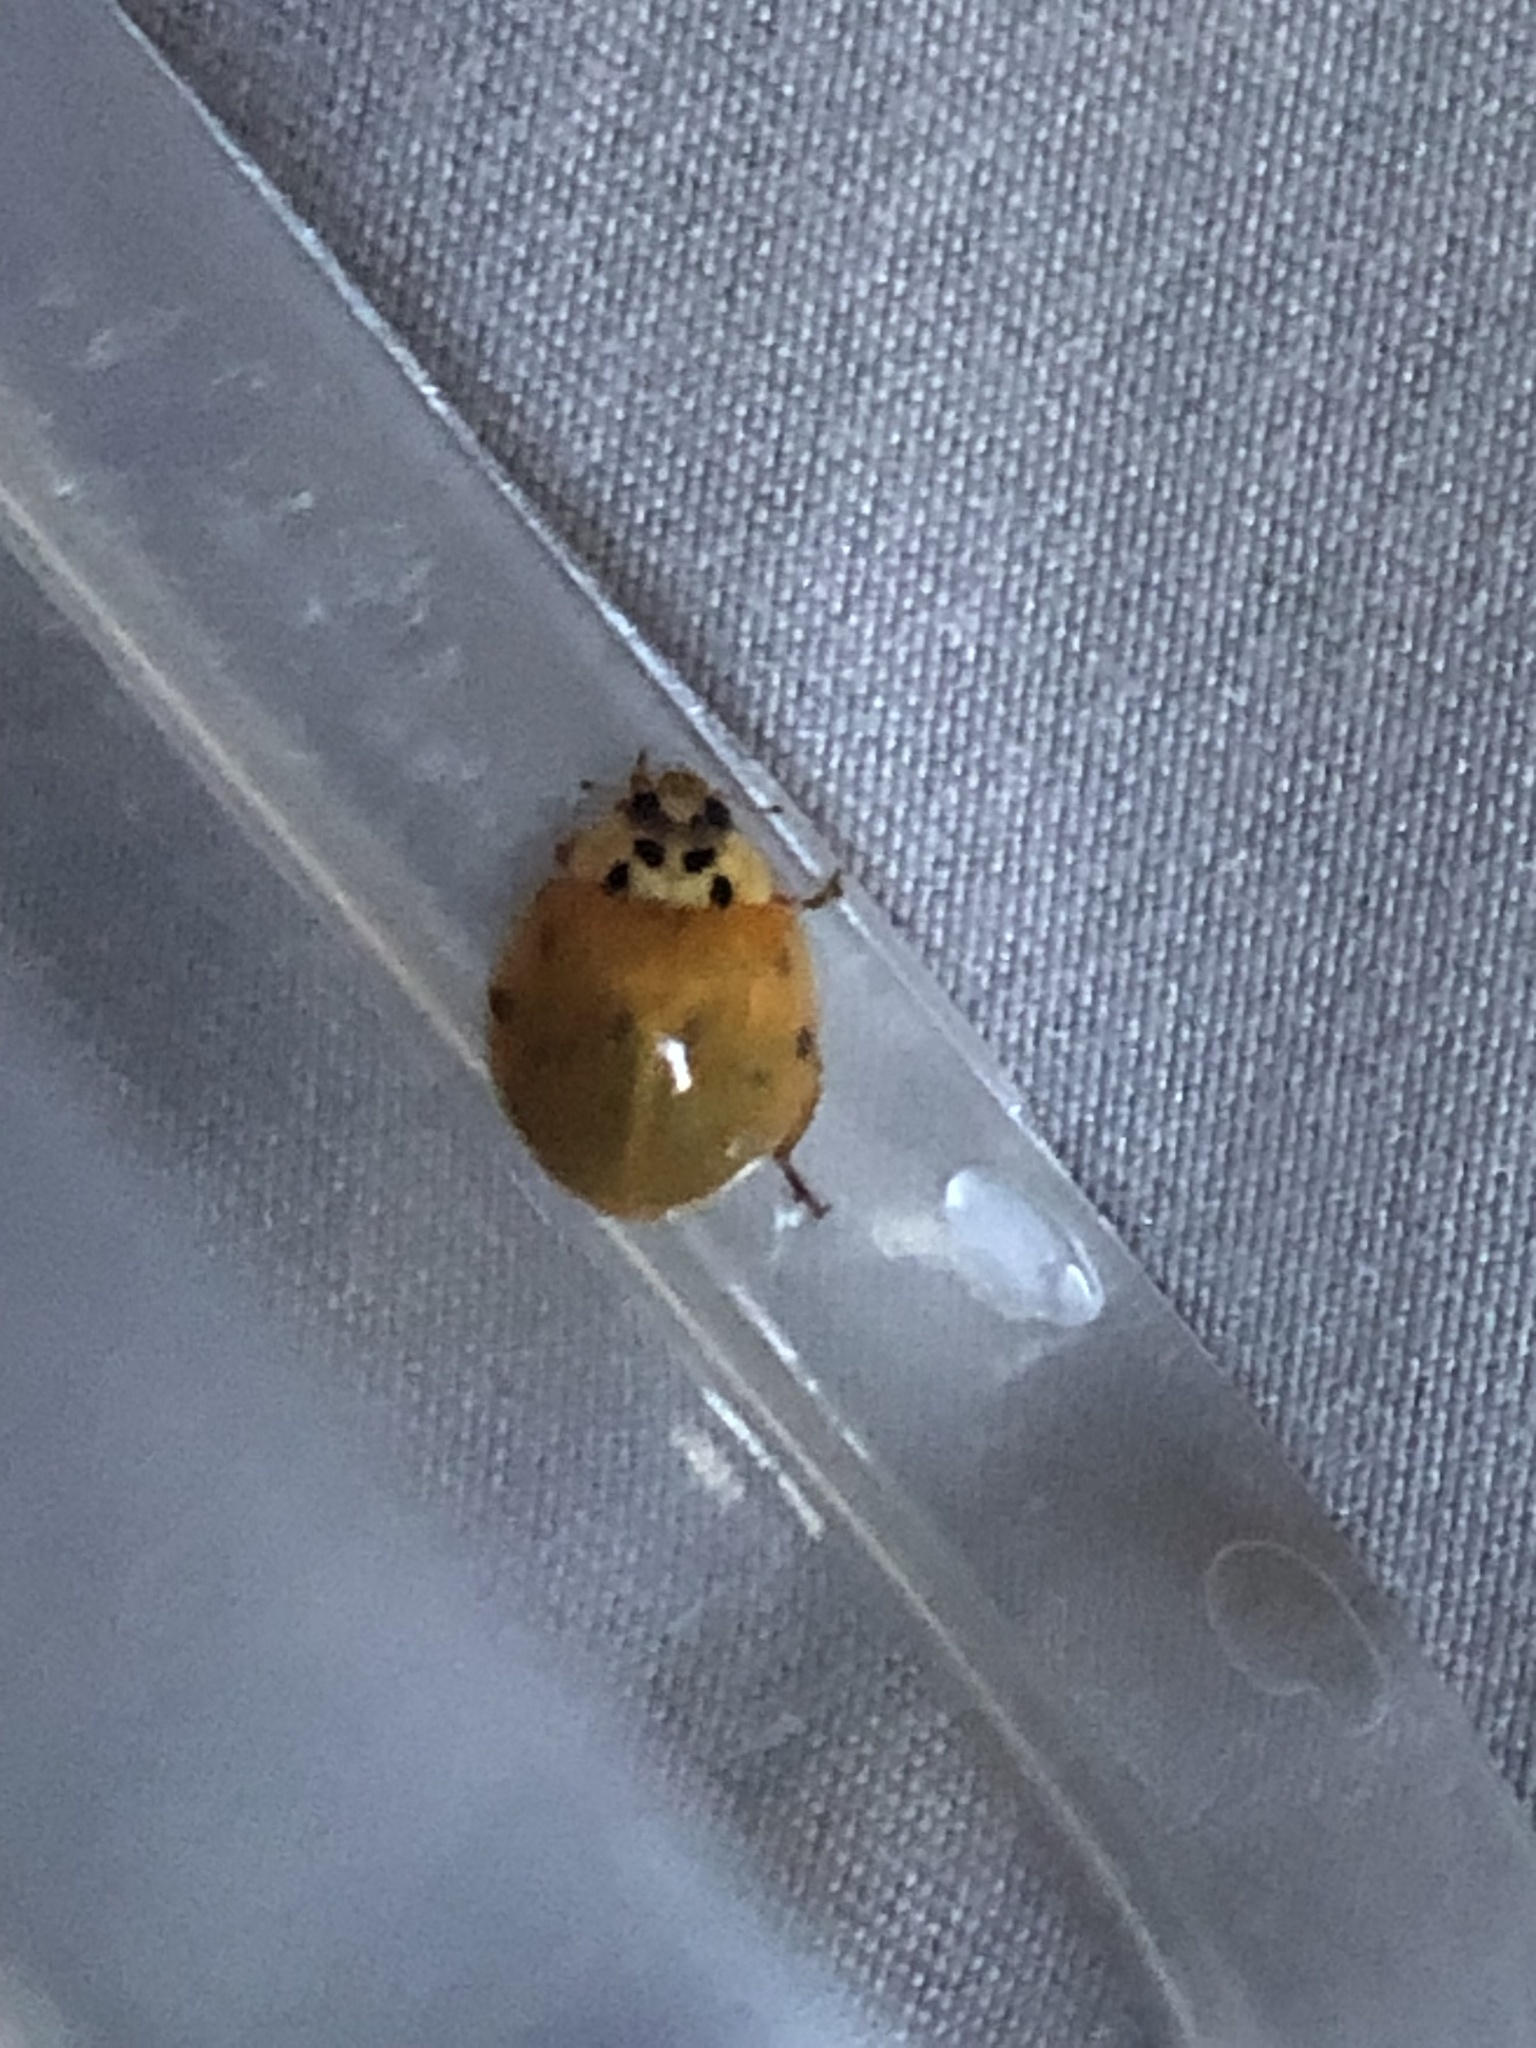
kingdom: Animalia
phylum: Arthropoda
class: Insecta
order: Coleoptera
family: Coccinellidae
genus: Harmonia
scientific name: Harmonia axyridis
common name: Harlequin ladybird
